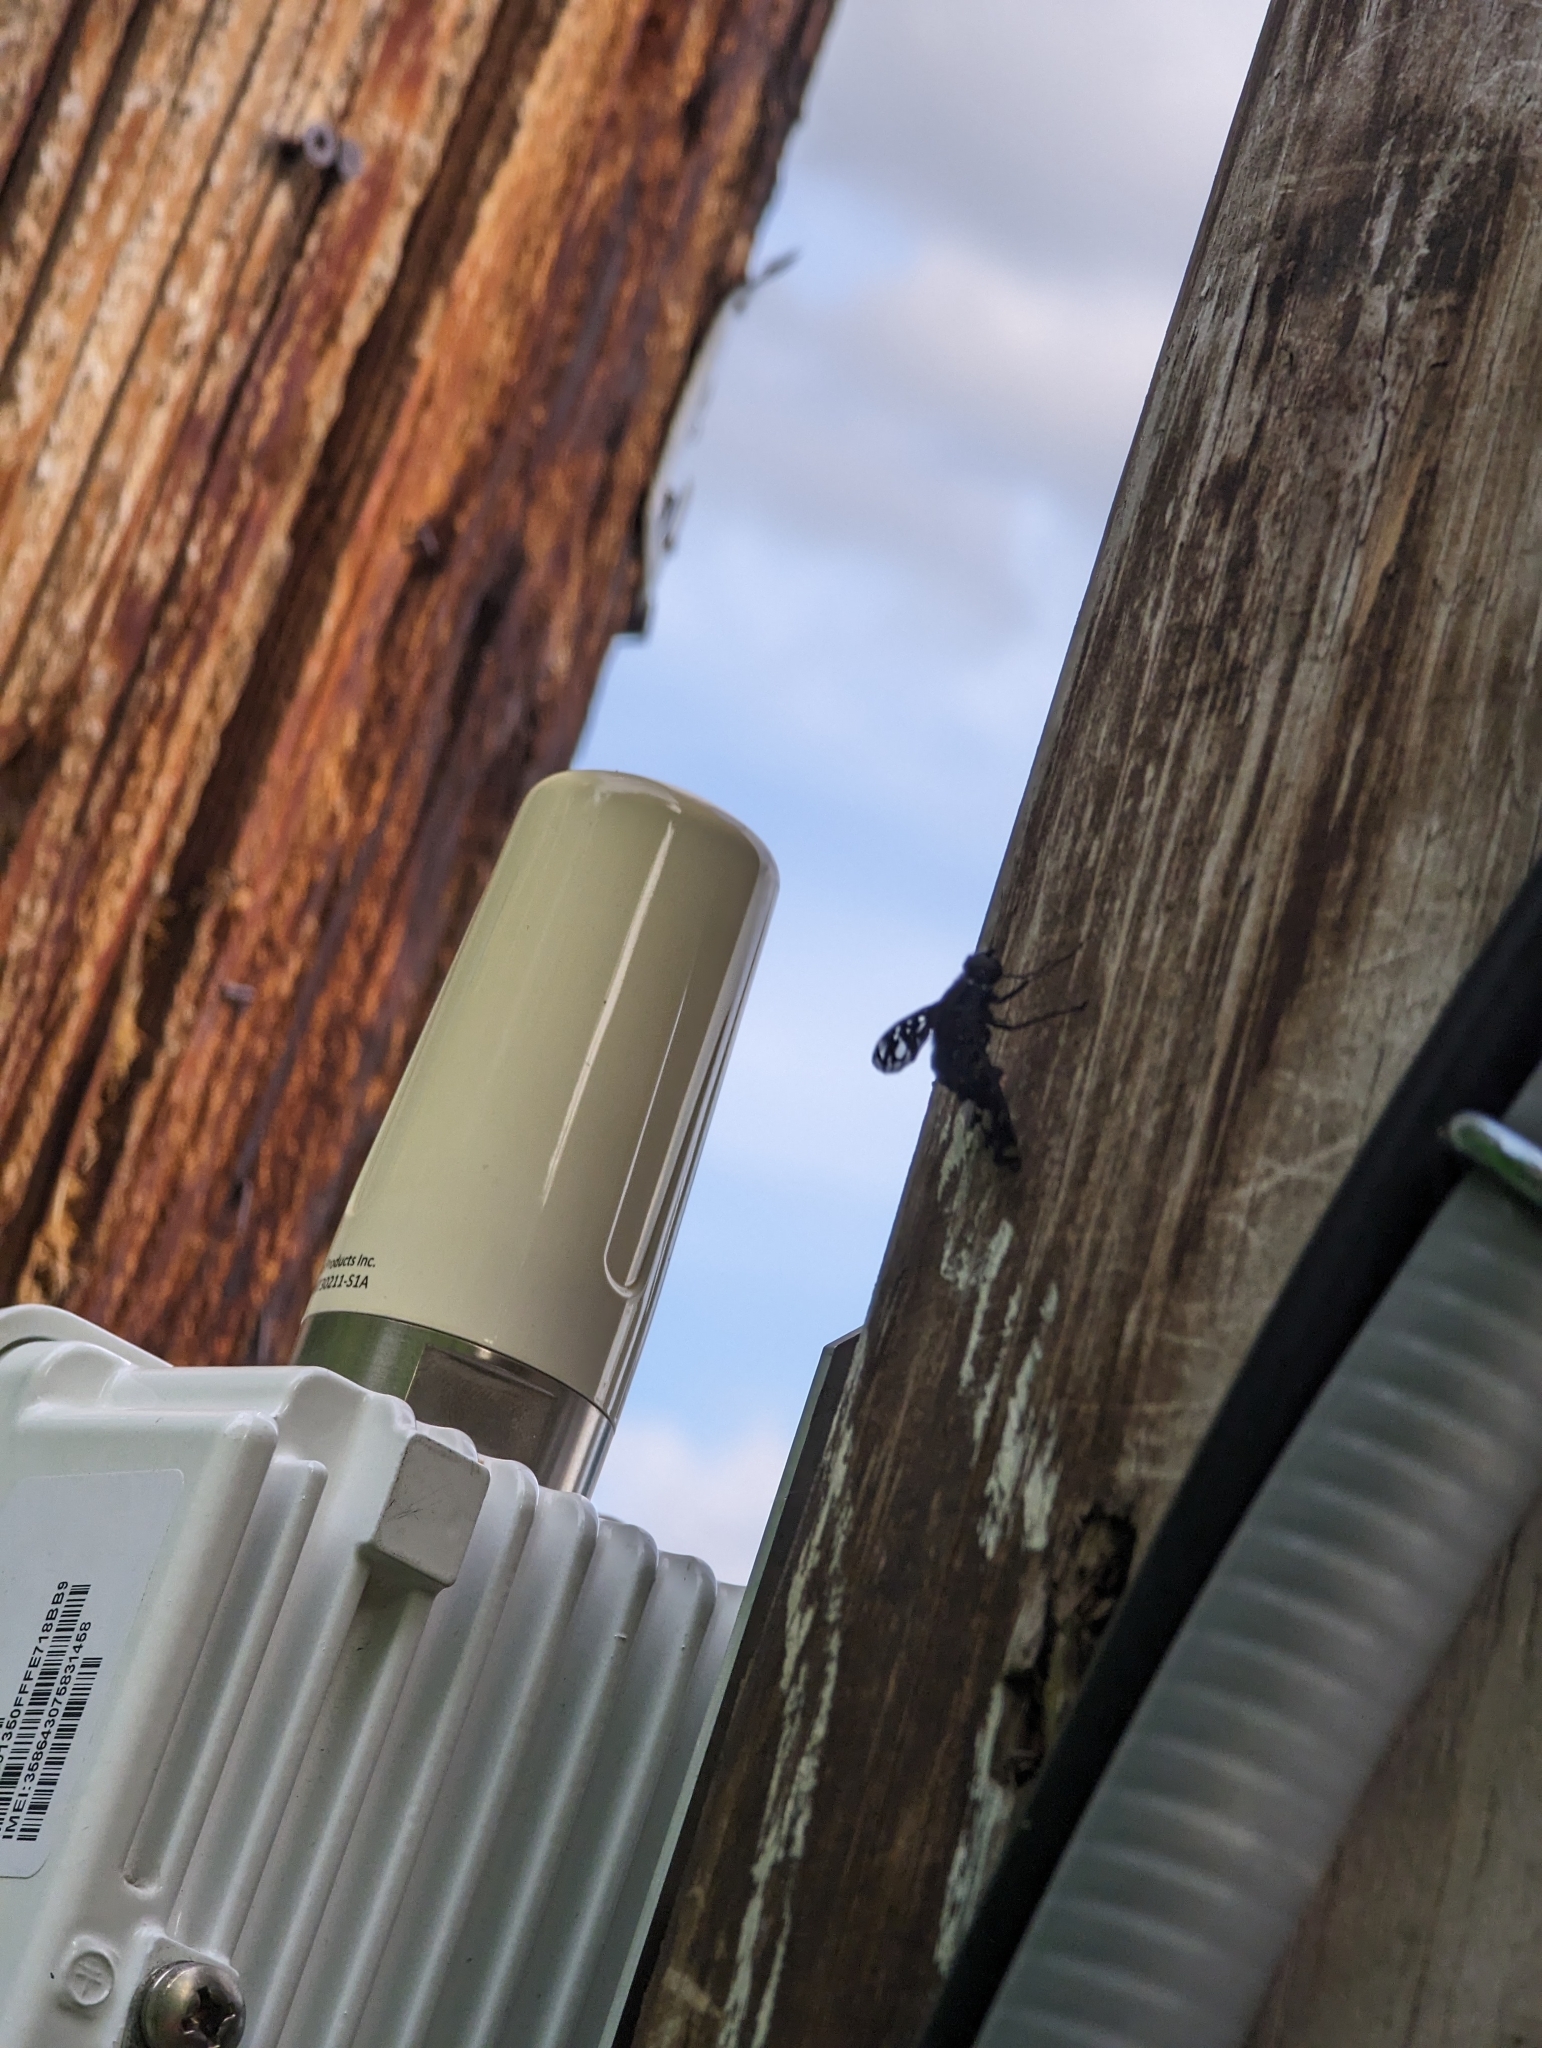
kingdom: Animalia
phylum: Arthropoda
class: Insecta
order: Diptera
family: Bombyliidae
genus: Xenox
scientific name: Xenox tigrinus
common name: Tiger bee fly
